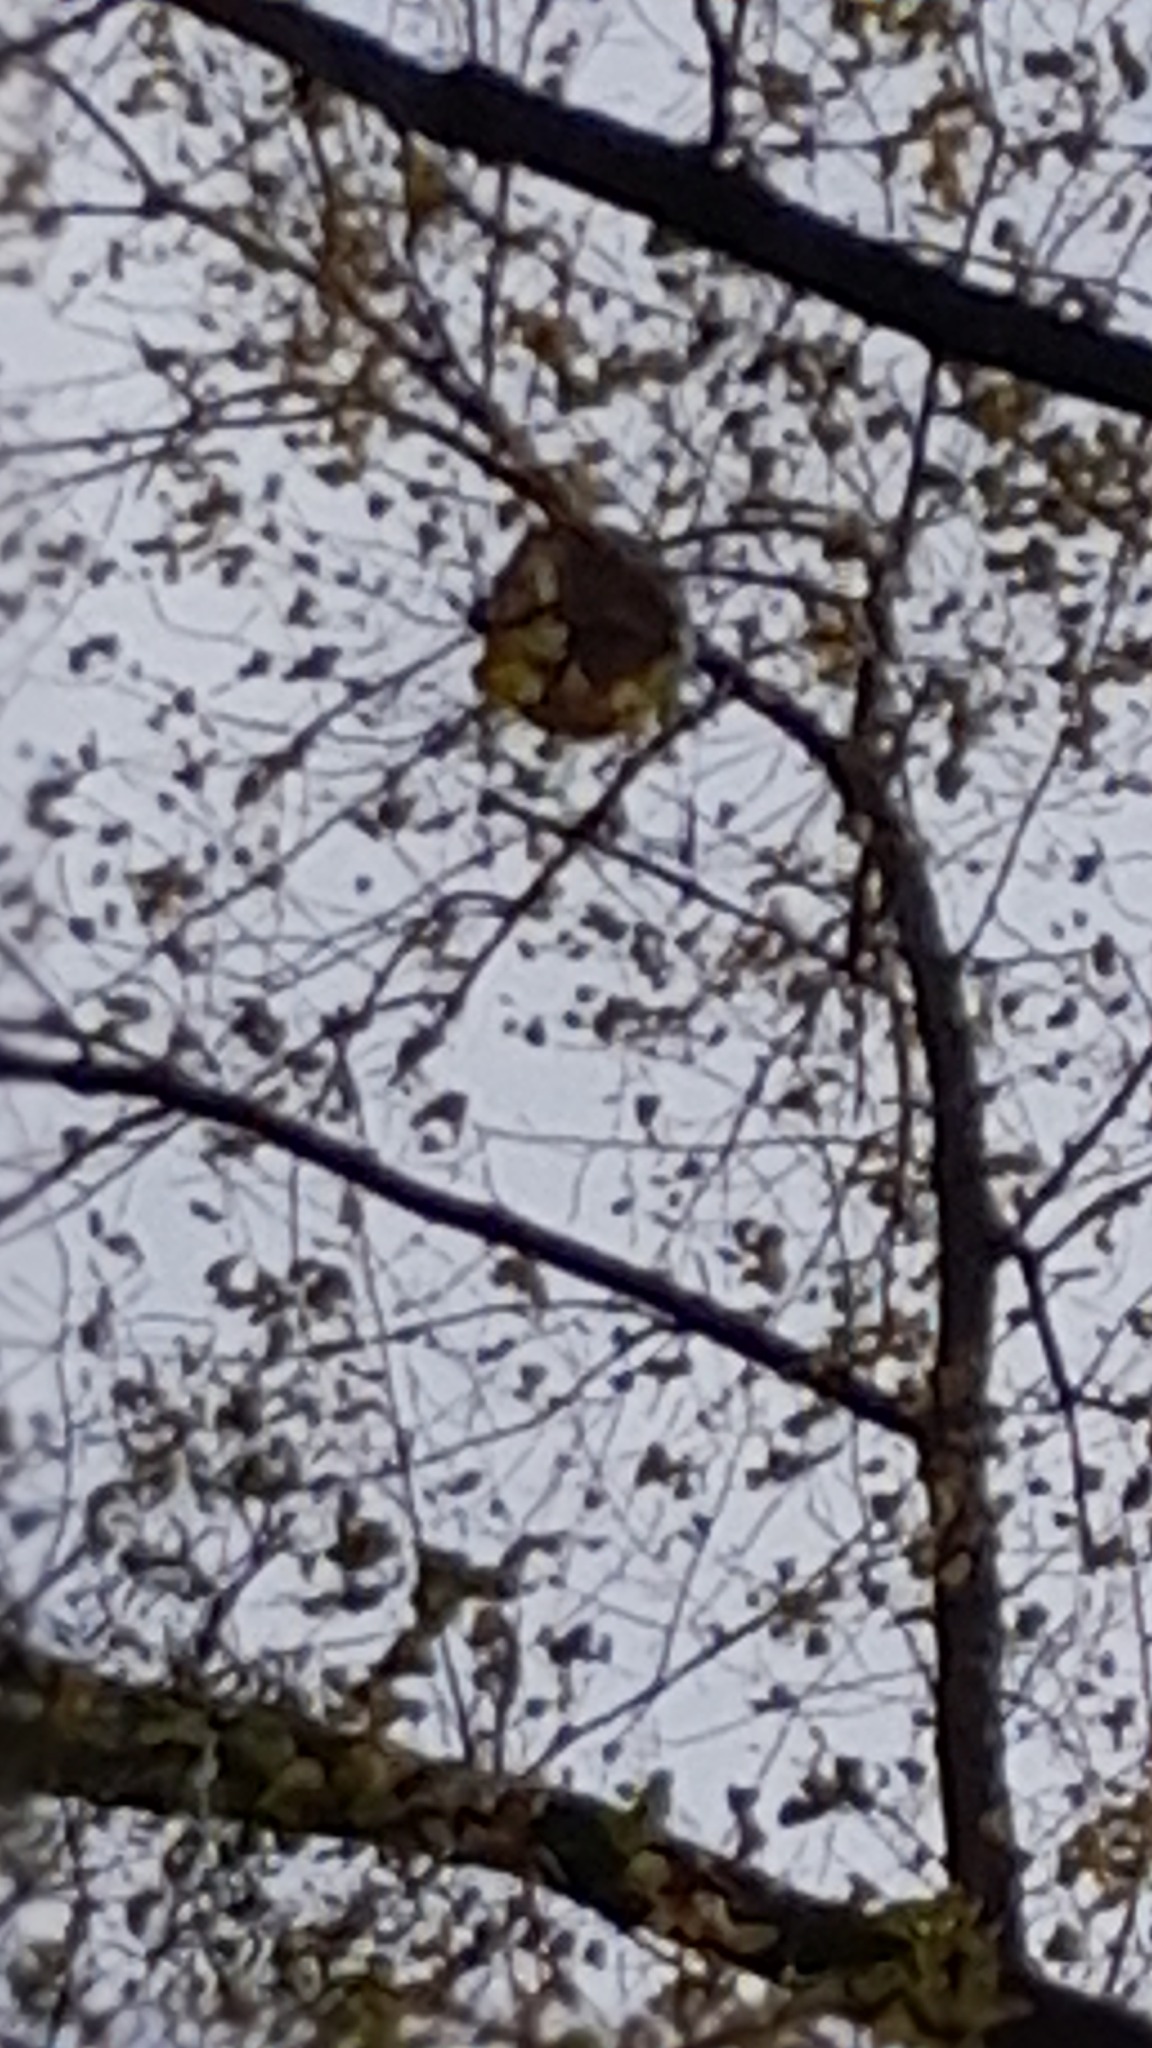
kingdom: Animalia
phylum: Arthropoda
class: Insecta
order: Hymenoptera
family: Vespidae
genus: Vespa
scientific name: Vespa velutina
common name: Asian hornet
